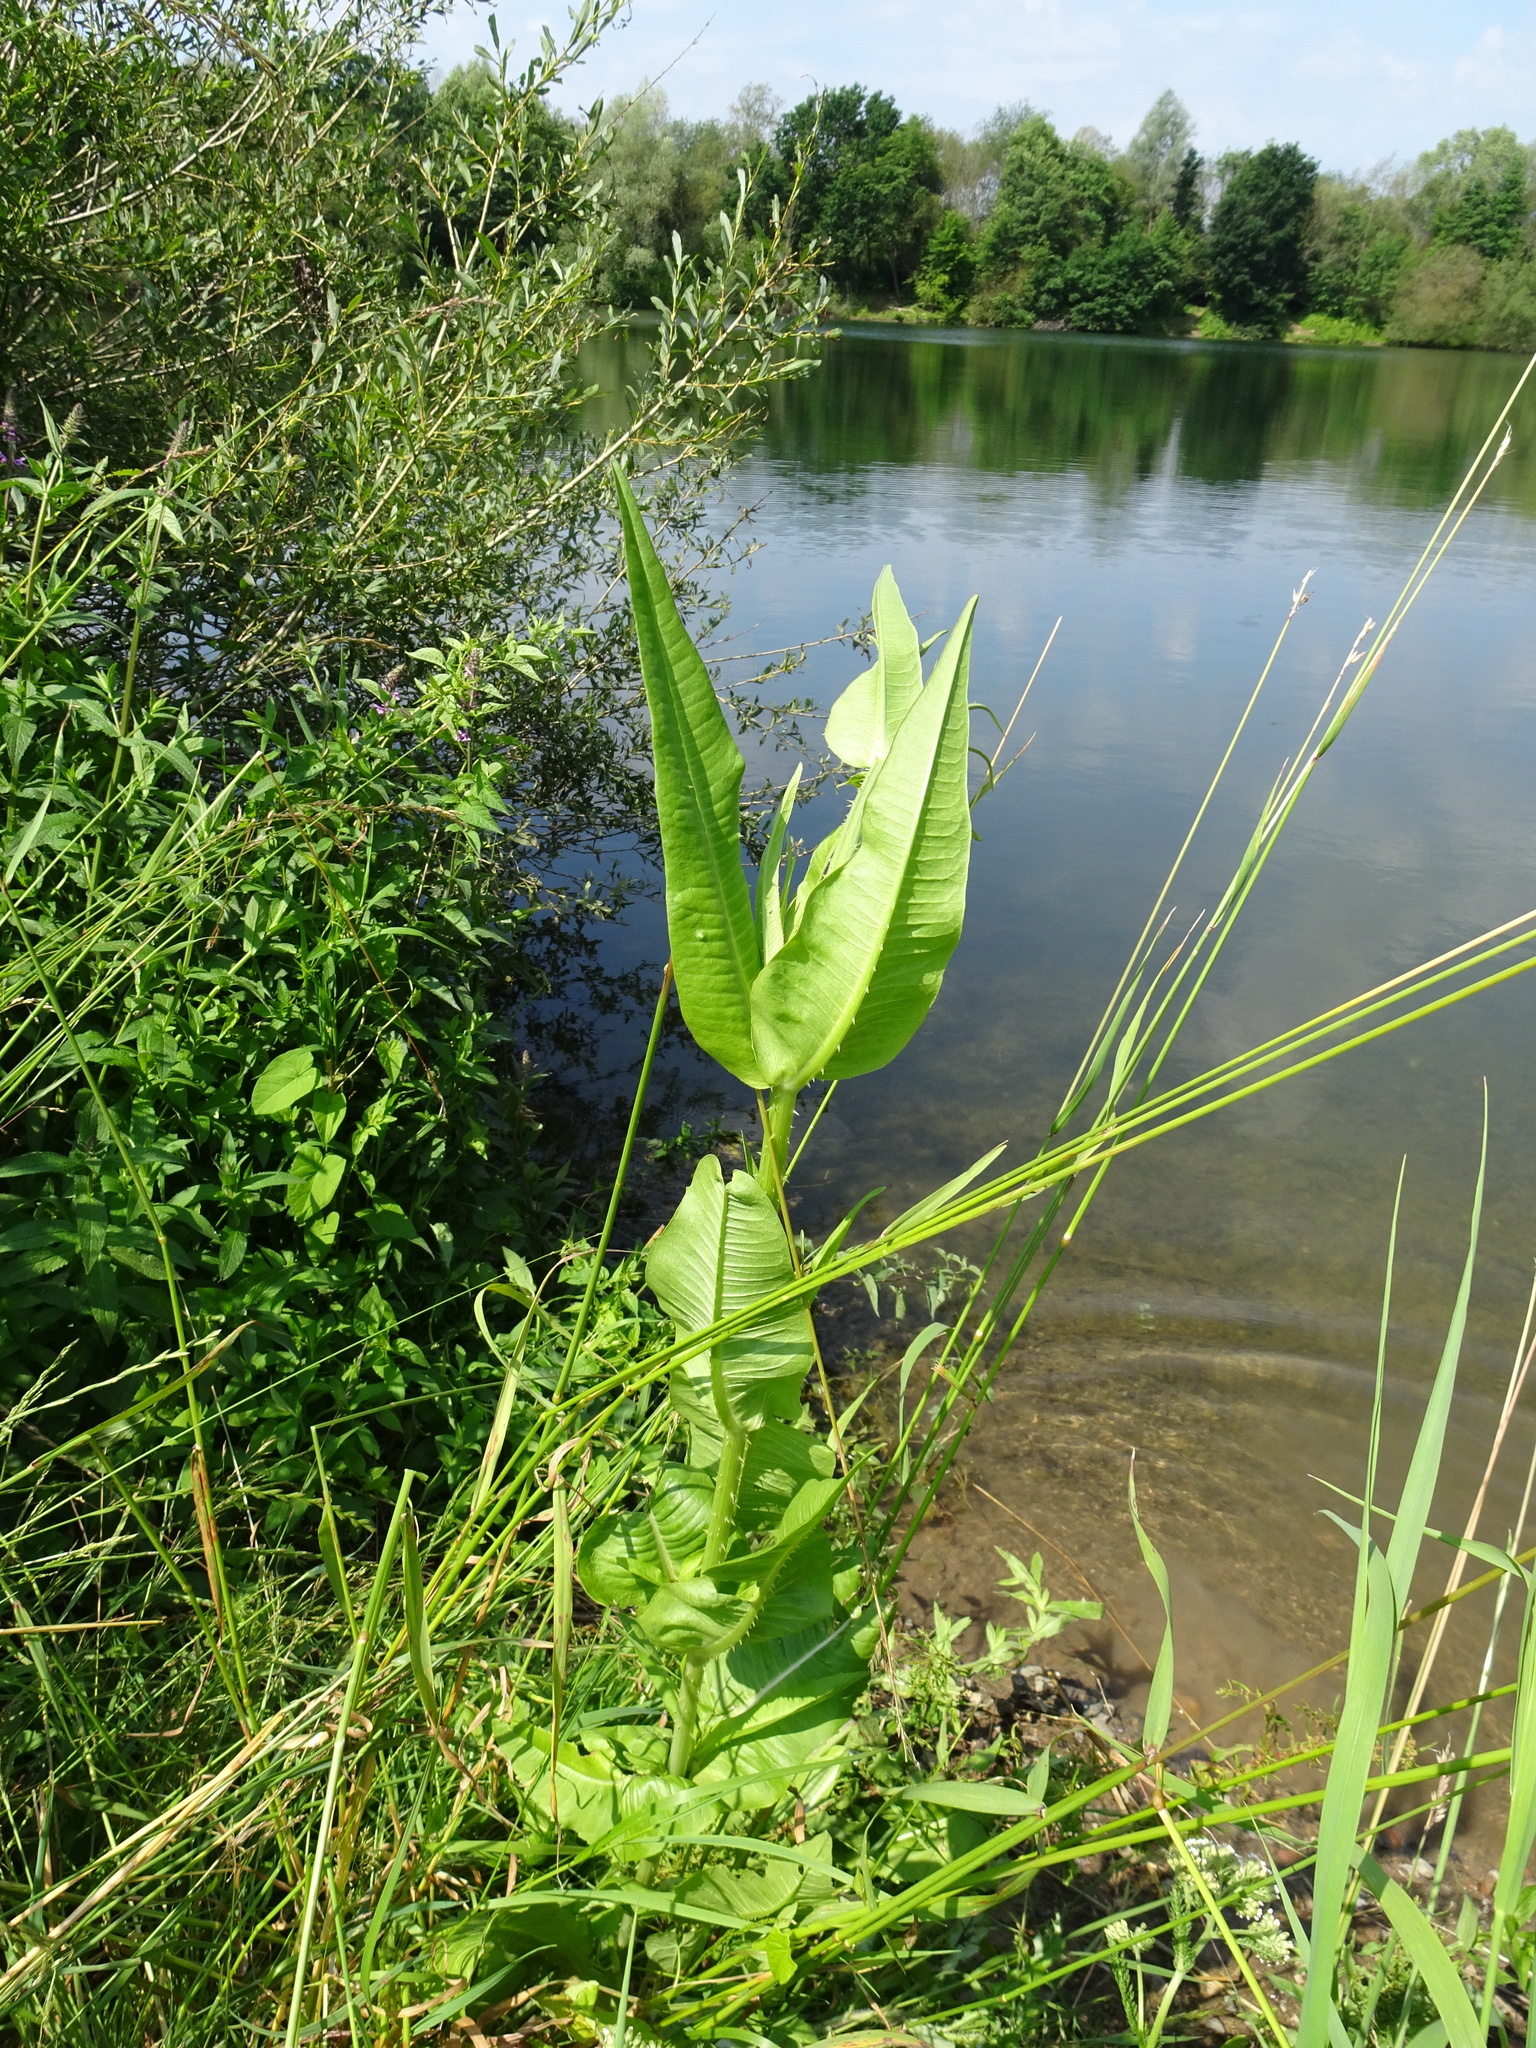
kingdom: Plantae
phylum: Tracheophyta
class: Magnoliopsida
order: Dipsacales
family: Caprifoliaceae
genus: Dipsacus
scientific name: Dipsacus fullonum
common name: Teasel
